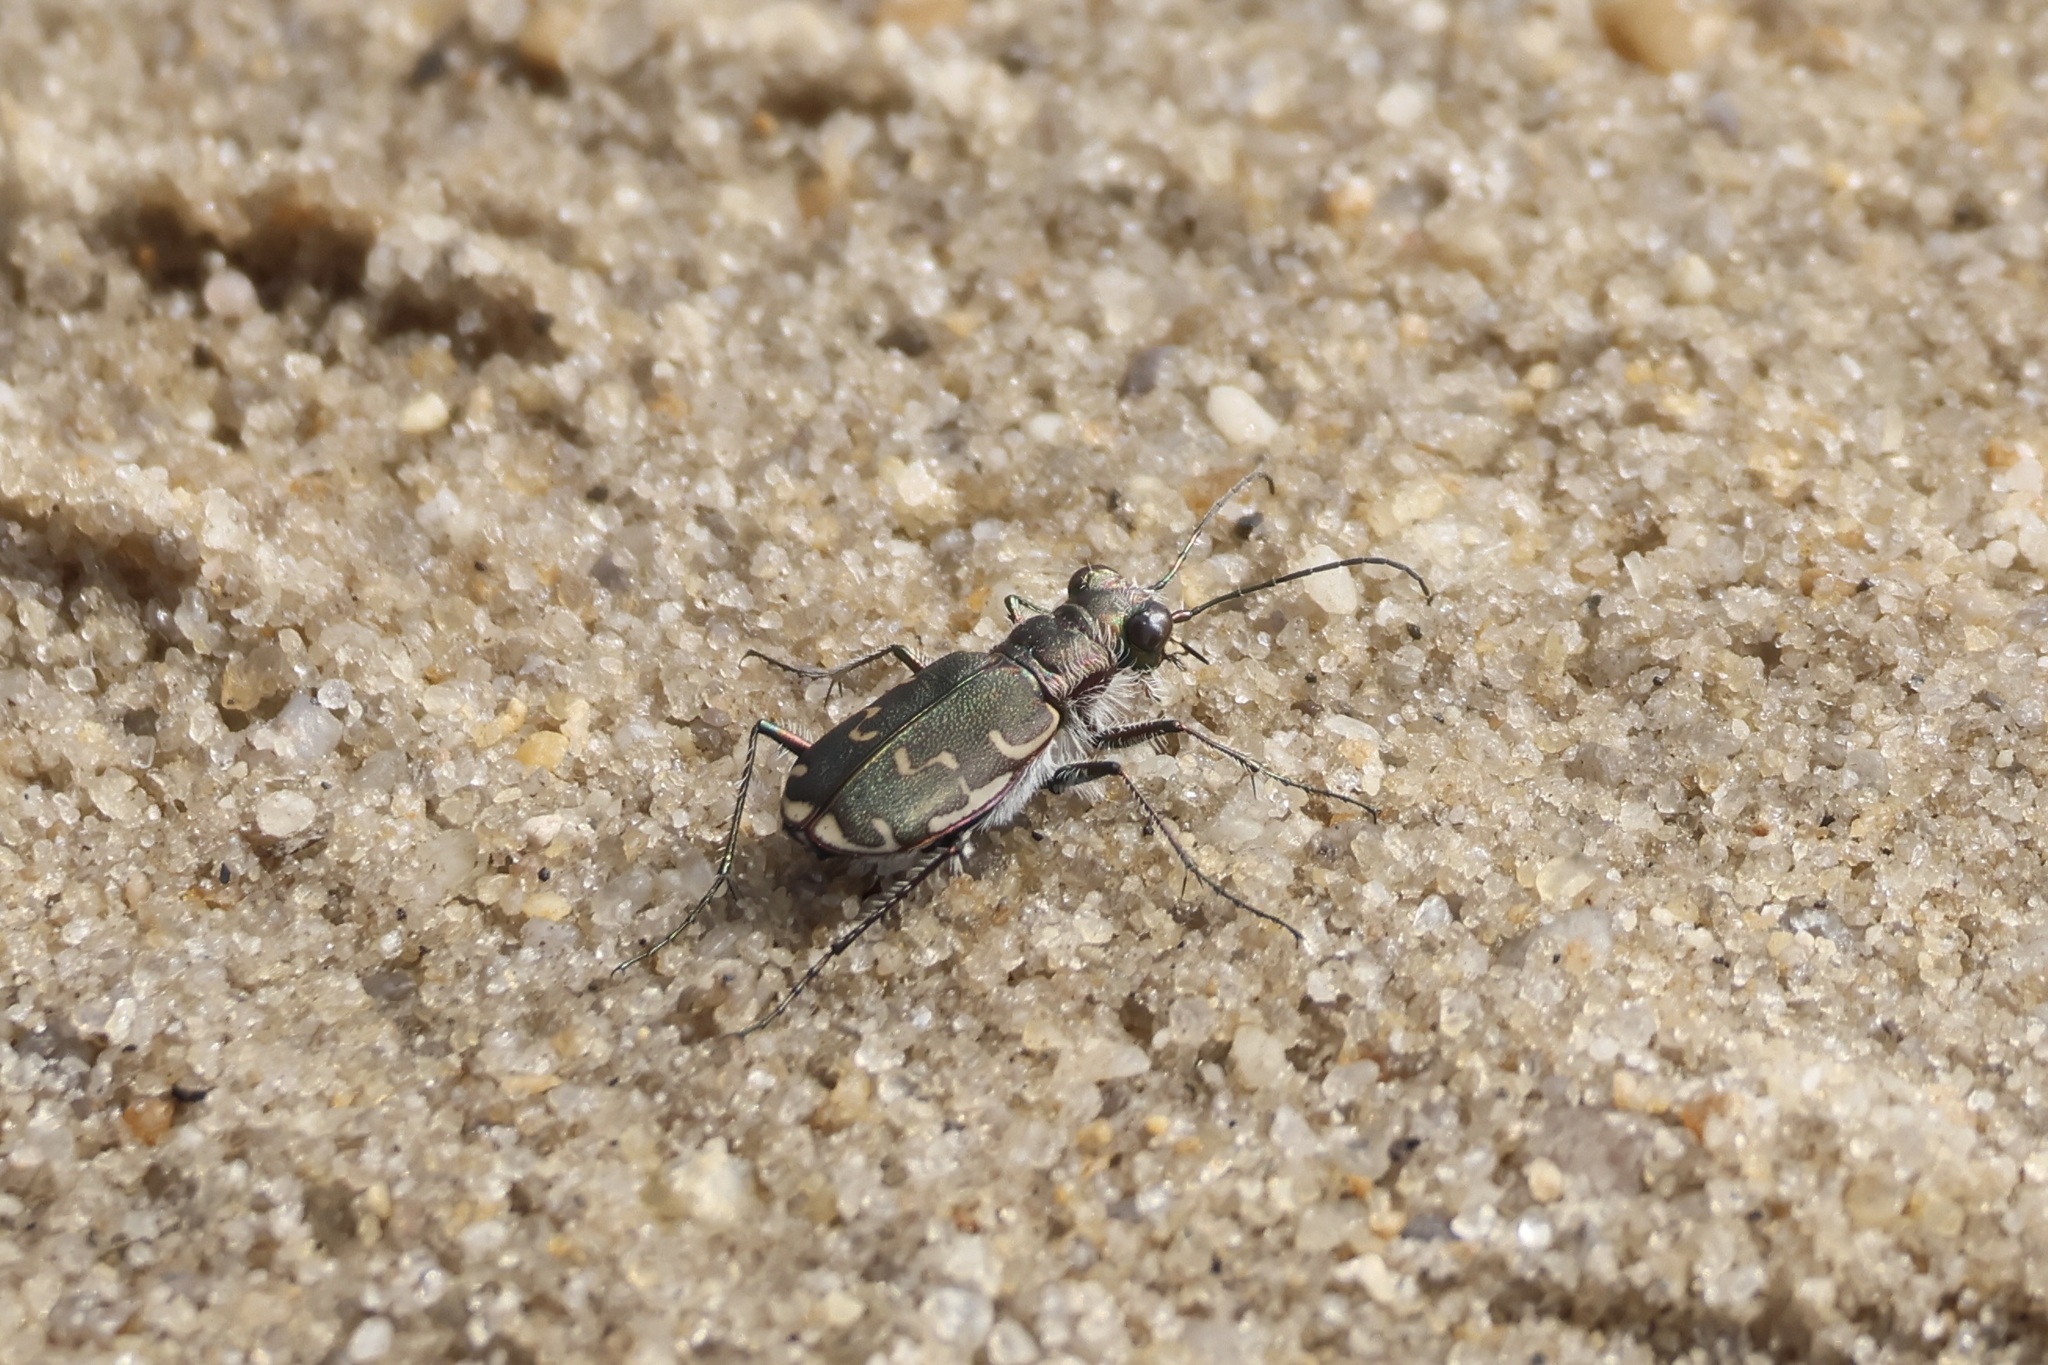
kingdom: Animalia
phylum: Arthropoda
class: Insecta
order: Coleoptera
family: Carabidae
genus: Cicindela
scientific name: Cicindela repanda
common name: Bronzed tiger beetle
